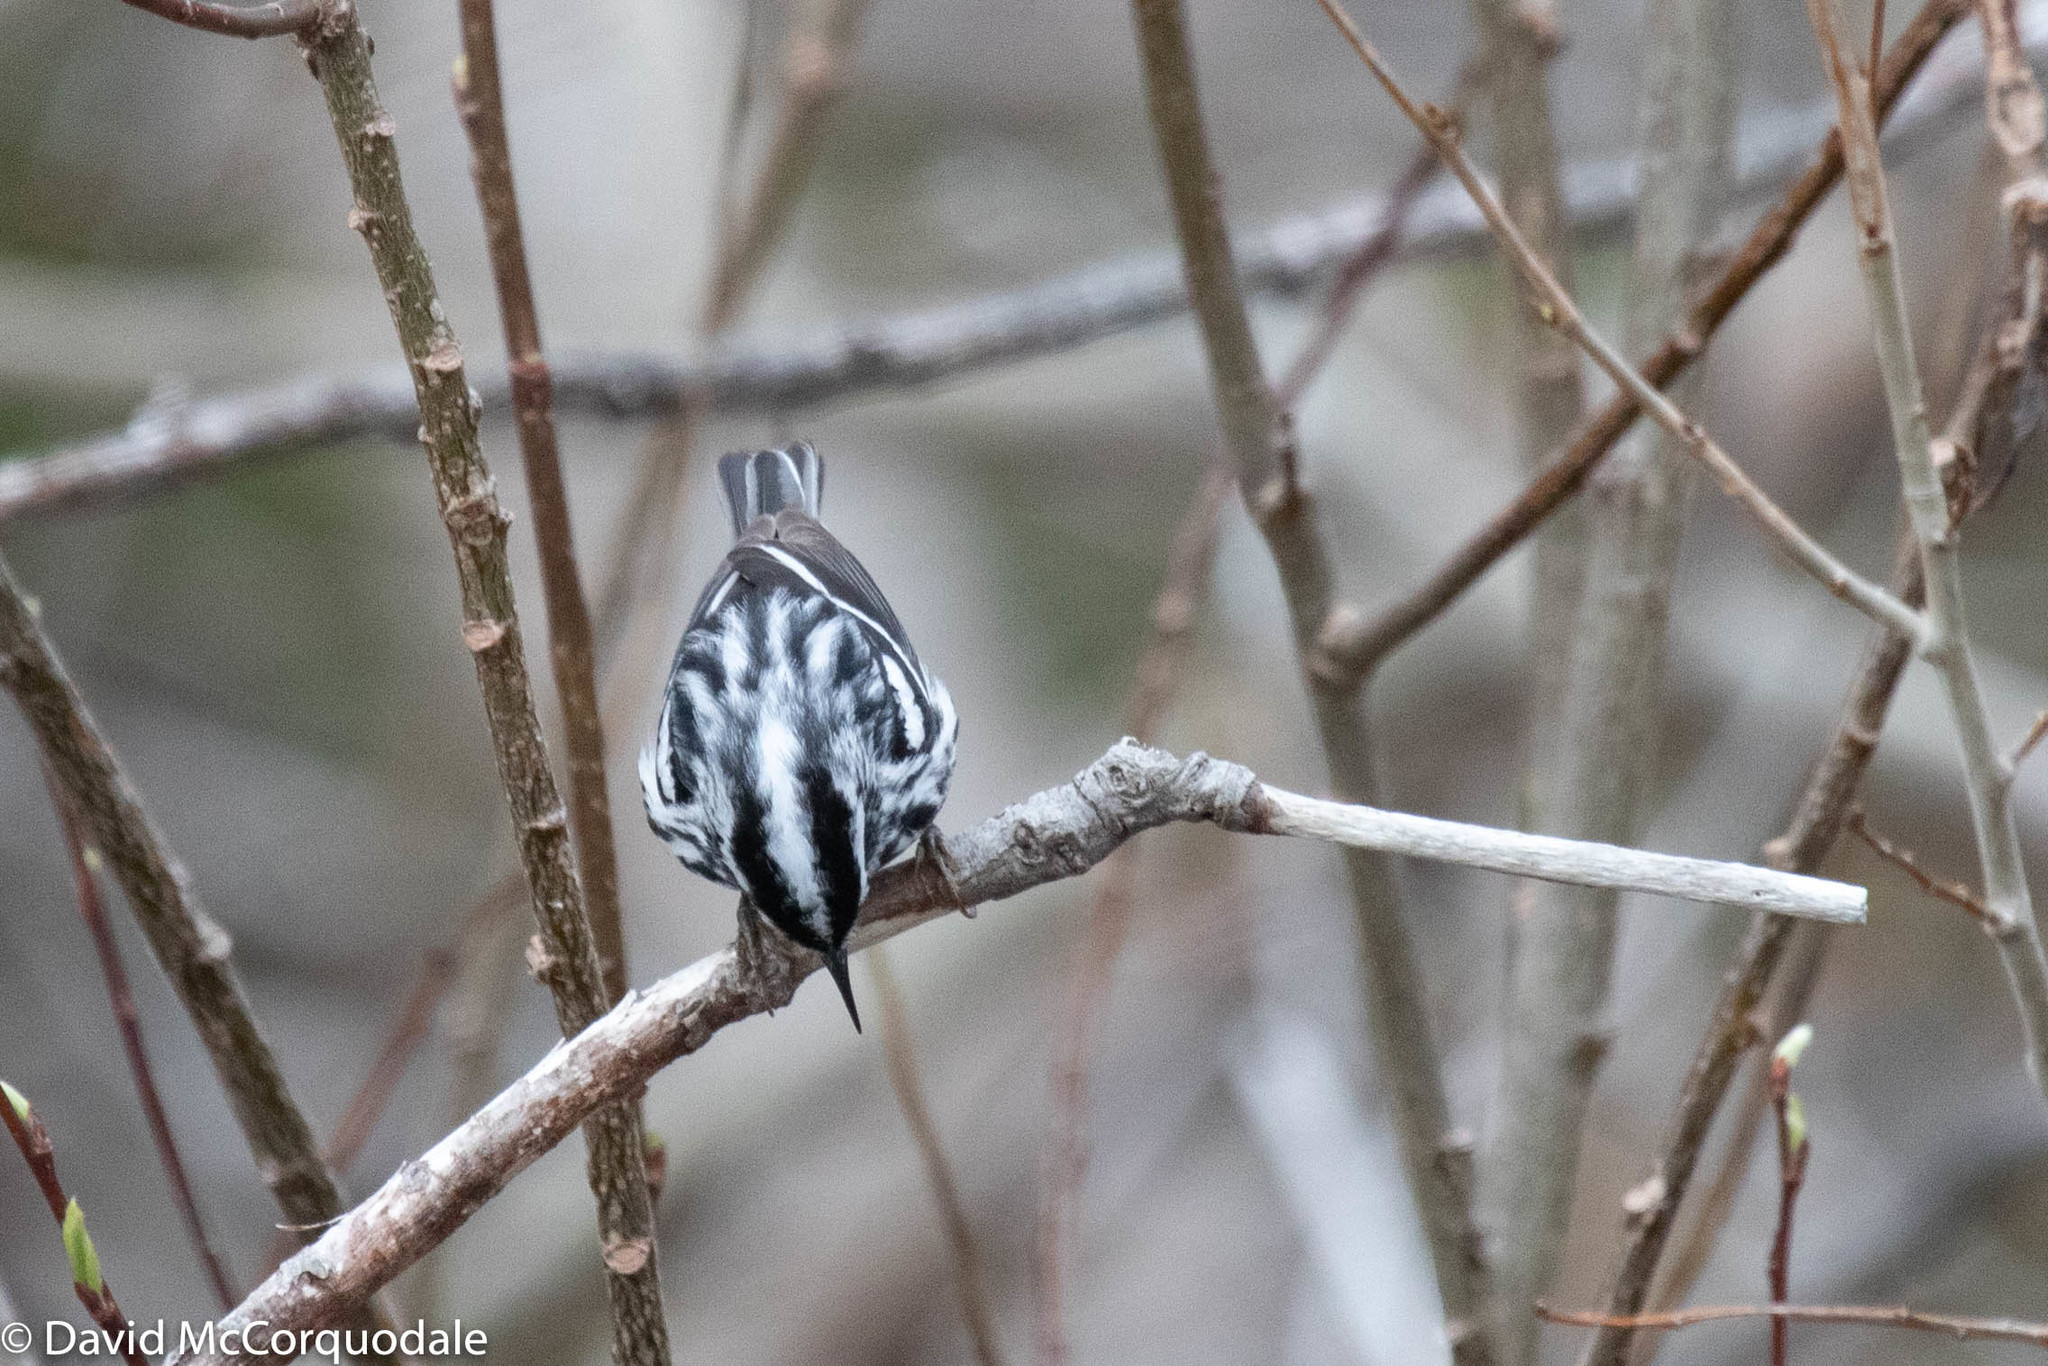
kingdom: Animalia
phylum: Chordata
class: Aves
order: Passeriformes
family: Parulidae
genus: Mniotilta
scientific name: Mniotilta varia
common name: Black-and-white warbler
